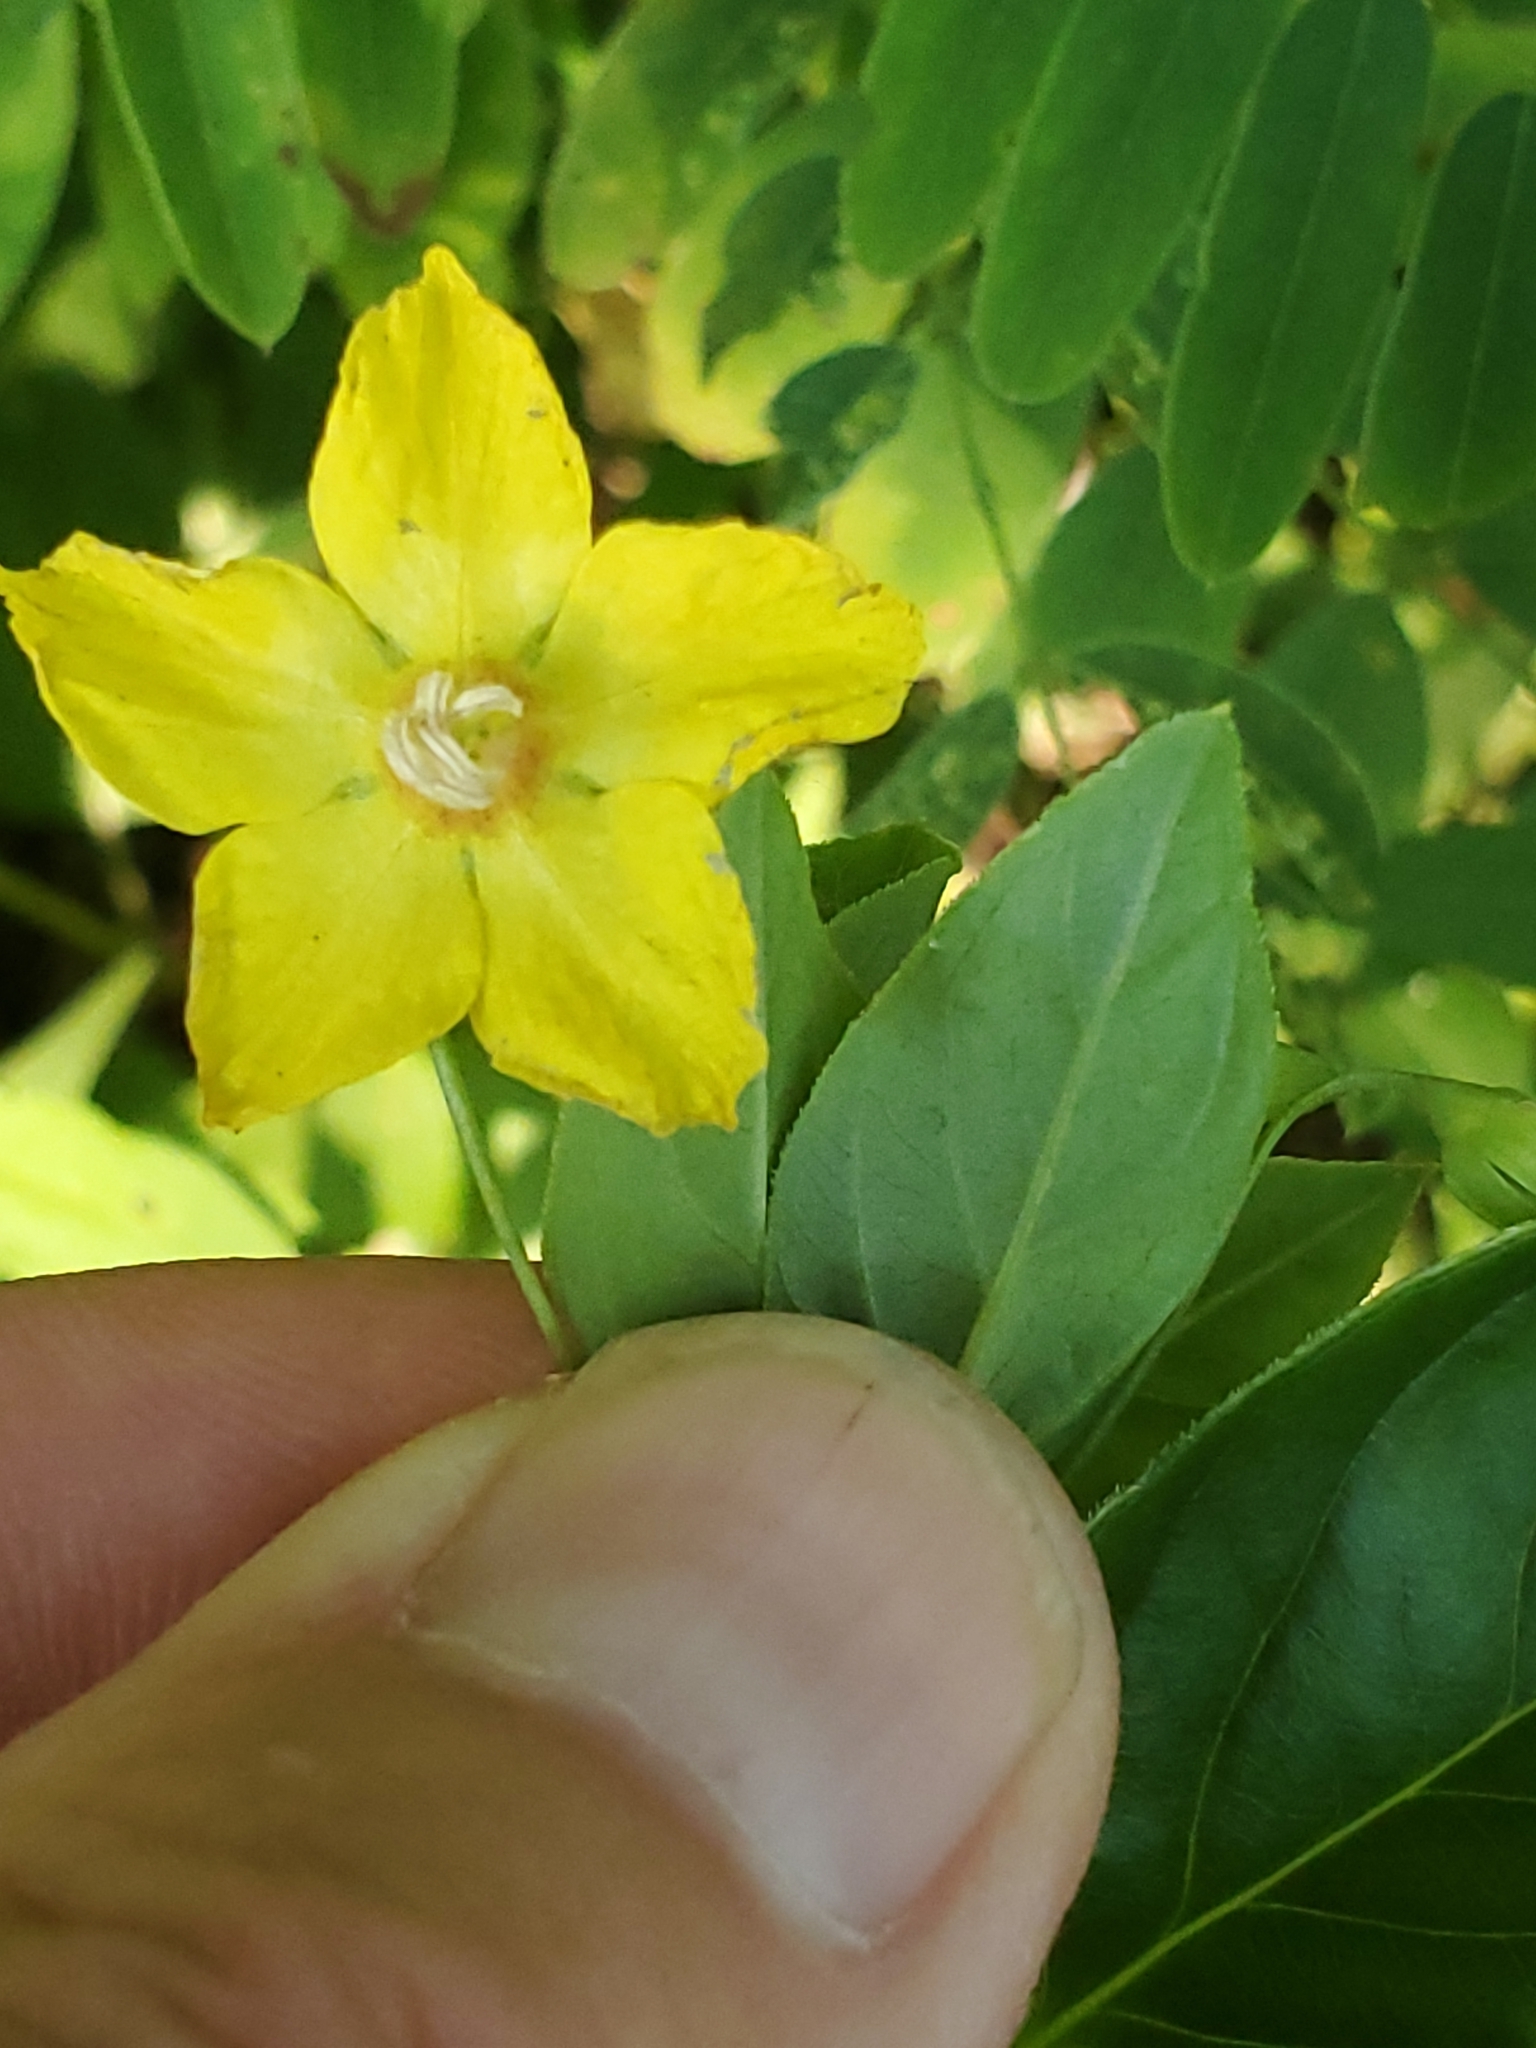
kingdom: Plantae
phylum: Tracheophyta
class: Magnoliopsida
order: Ericales
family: Primulaceae
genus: Lysimachia
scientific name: Lysimachia ciliata
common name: Fringed loosestrife
